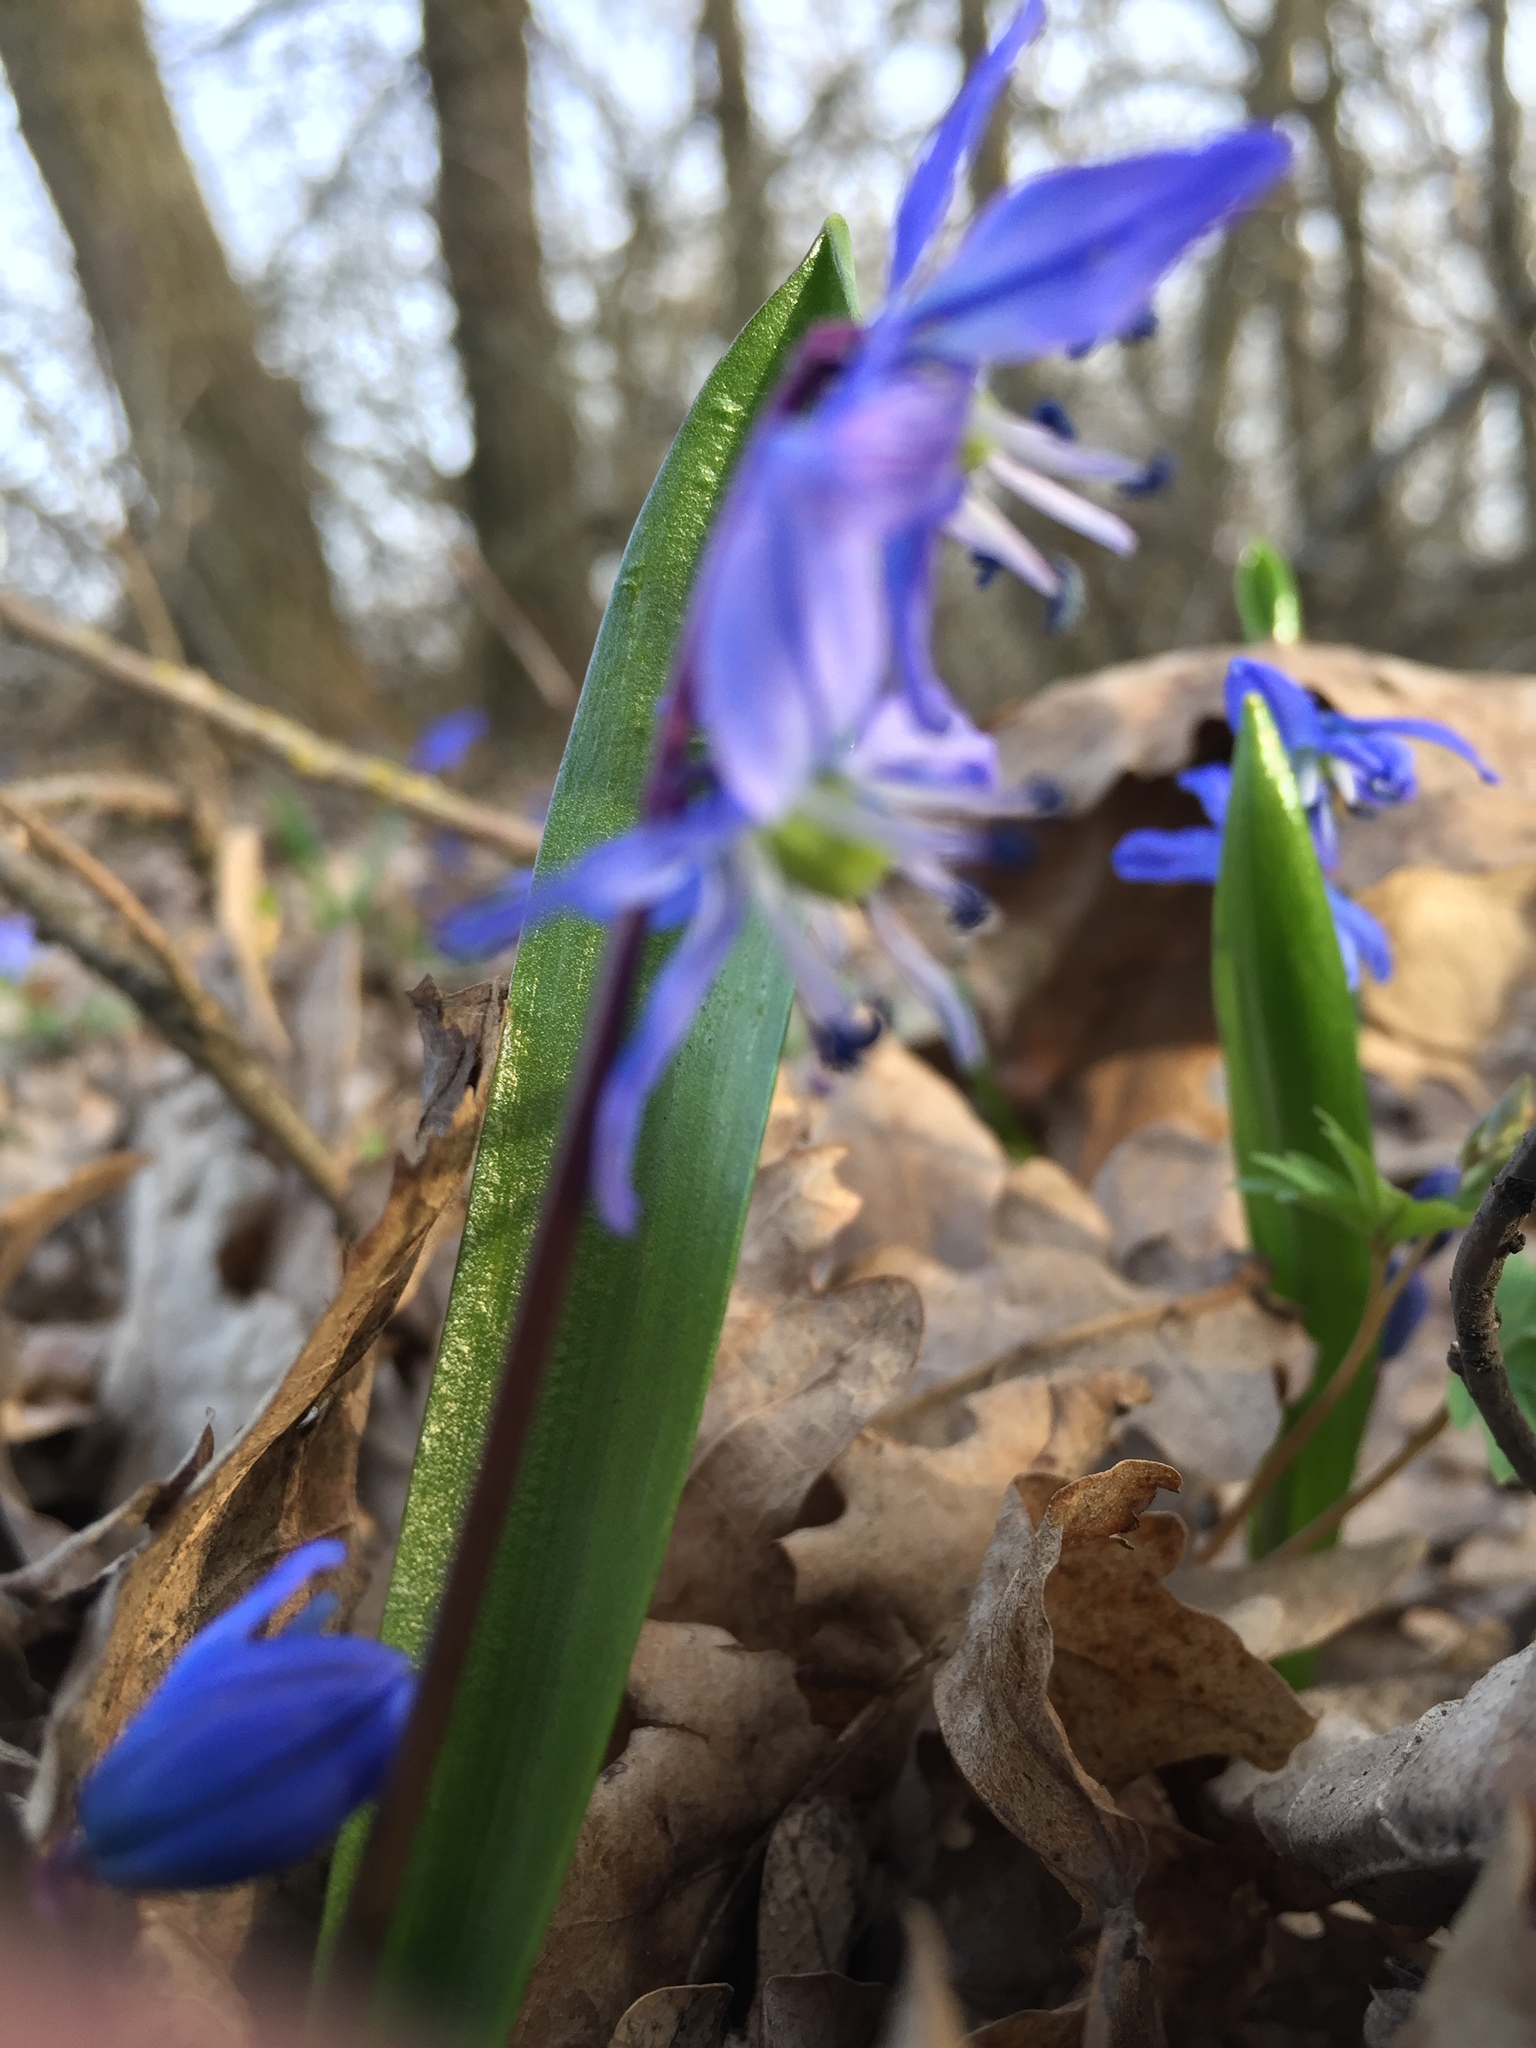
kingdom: Plantae
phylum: Tracheophyta
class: Liliopsida
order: Asparagales
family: Asparagaceae
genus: Scilla
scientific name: Scilla siberica
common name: Siberian squill
